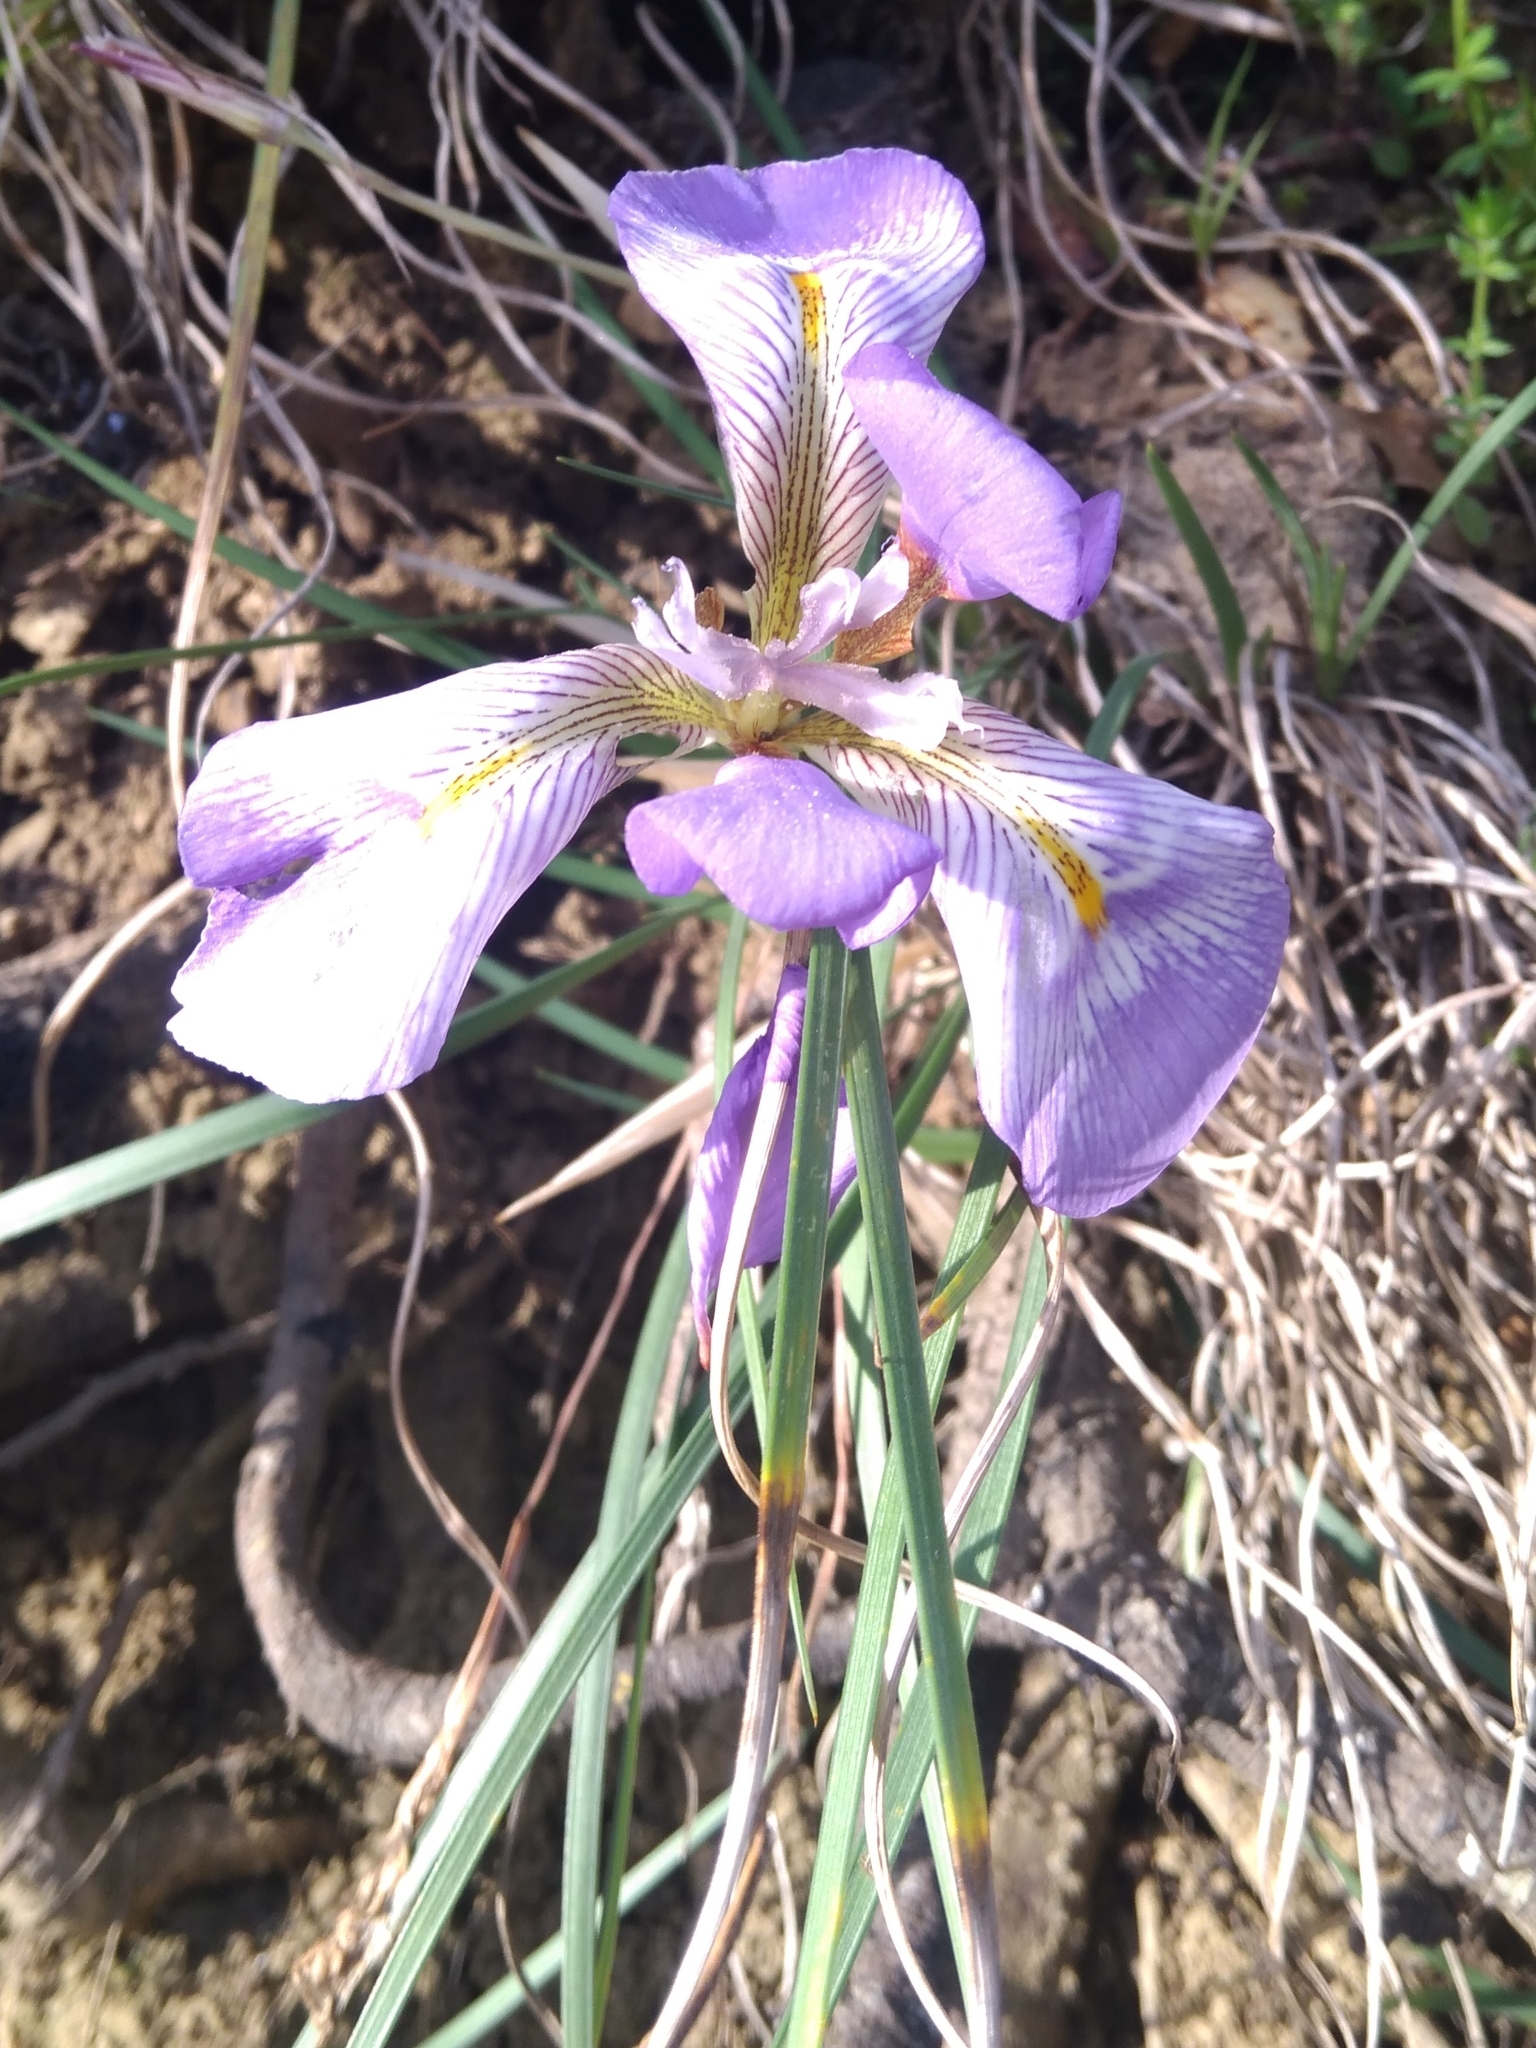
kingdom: Plantae
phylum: Tracheophyta
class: Liliopsida
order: Asparagales
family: Iridaceae
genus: Iris
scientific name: Iris unguicularis
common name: Algerian iris
